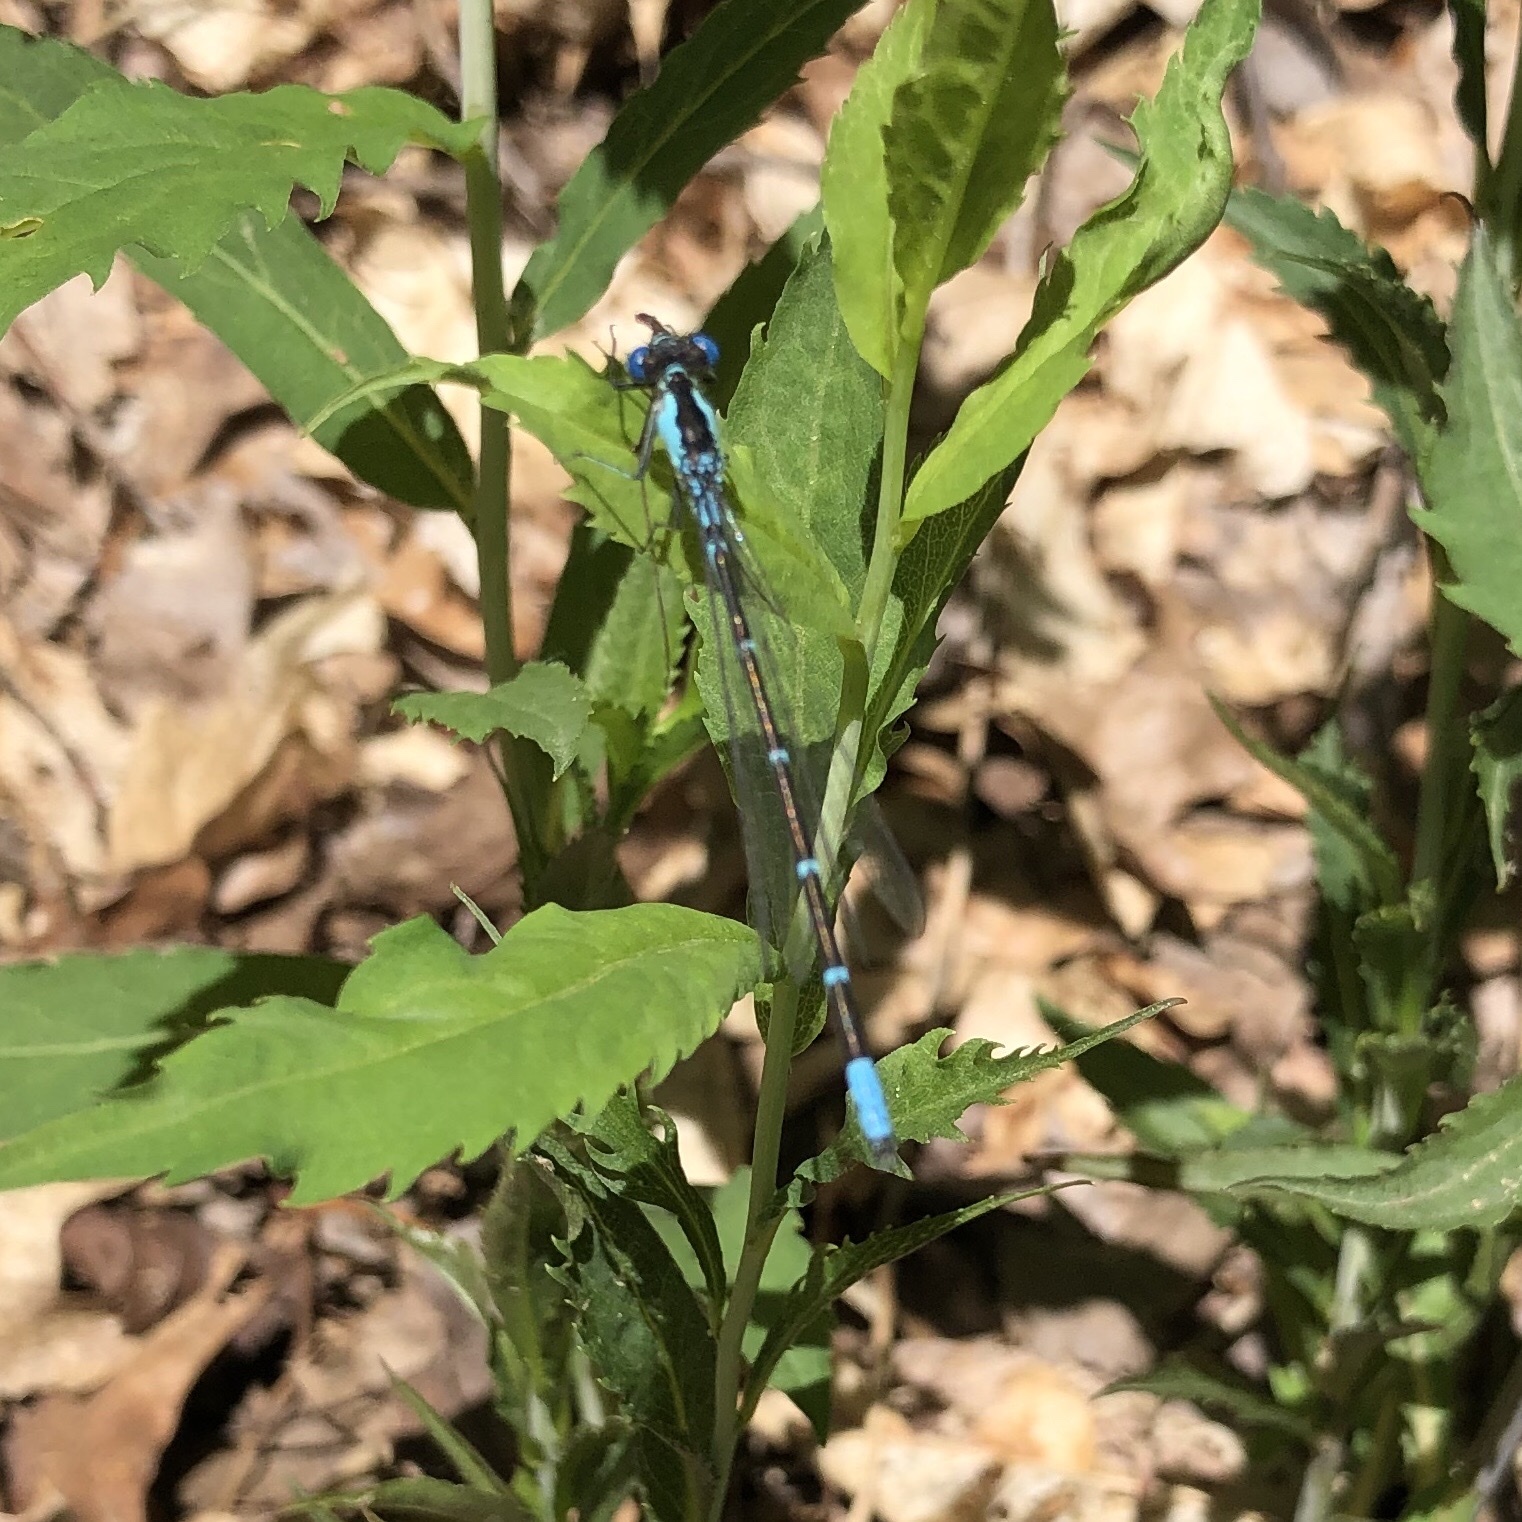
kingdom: Animalia
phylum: Arthropoda
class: Insecta
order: Odonata
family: Coenagrionidae
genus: Chromagrion
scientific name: Chromagrion conditum
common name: Aurora damsel
